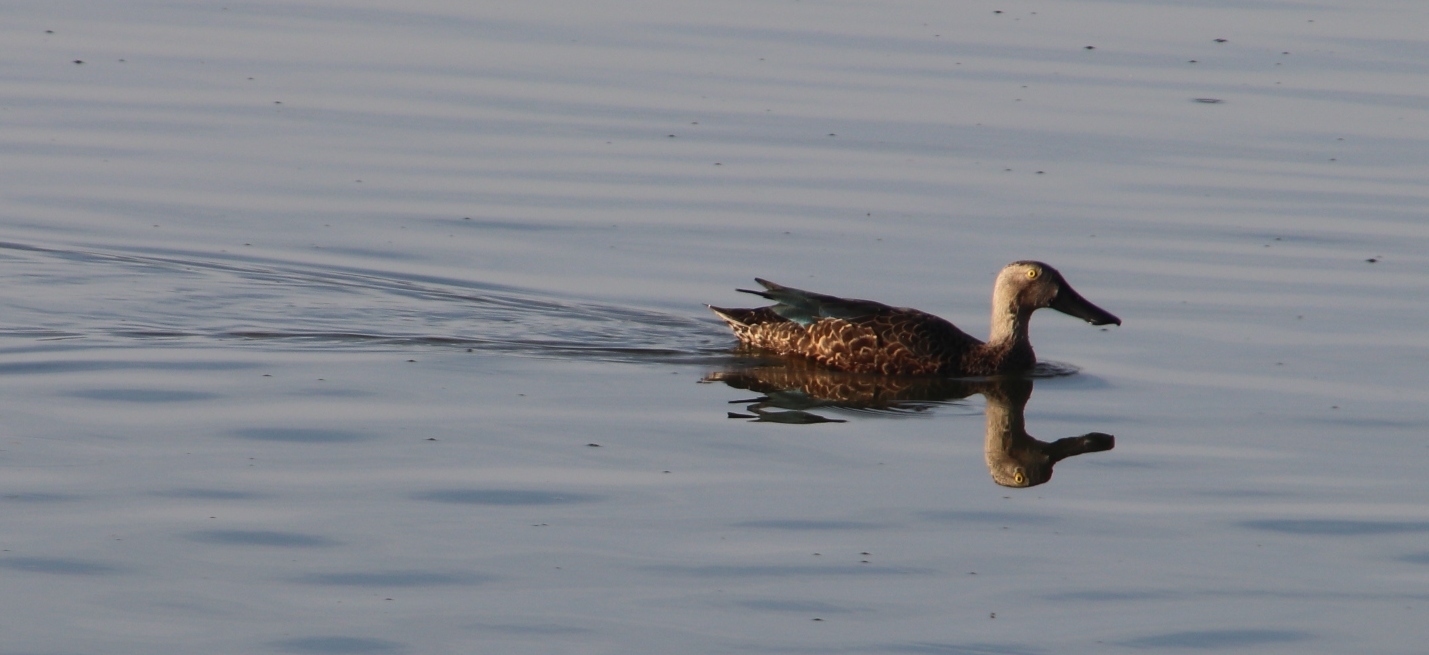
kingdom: Animalia
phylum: Chordata
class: Aves
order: Anseriformes
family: Anatidae
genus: Spatula
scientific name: Spatula smithii
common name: Cape shoveler
